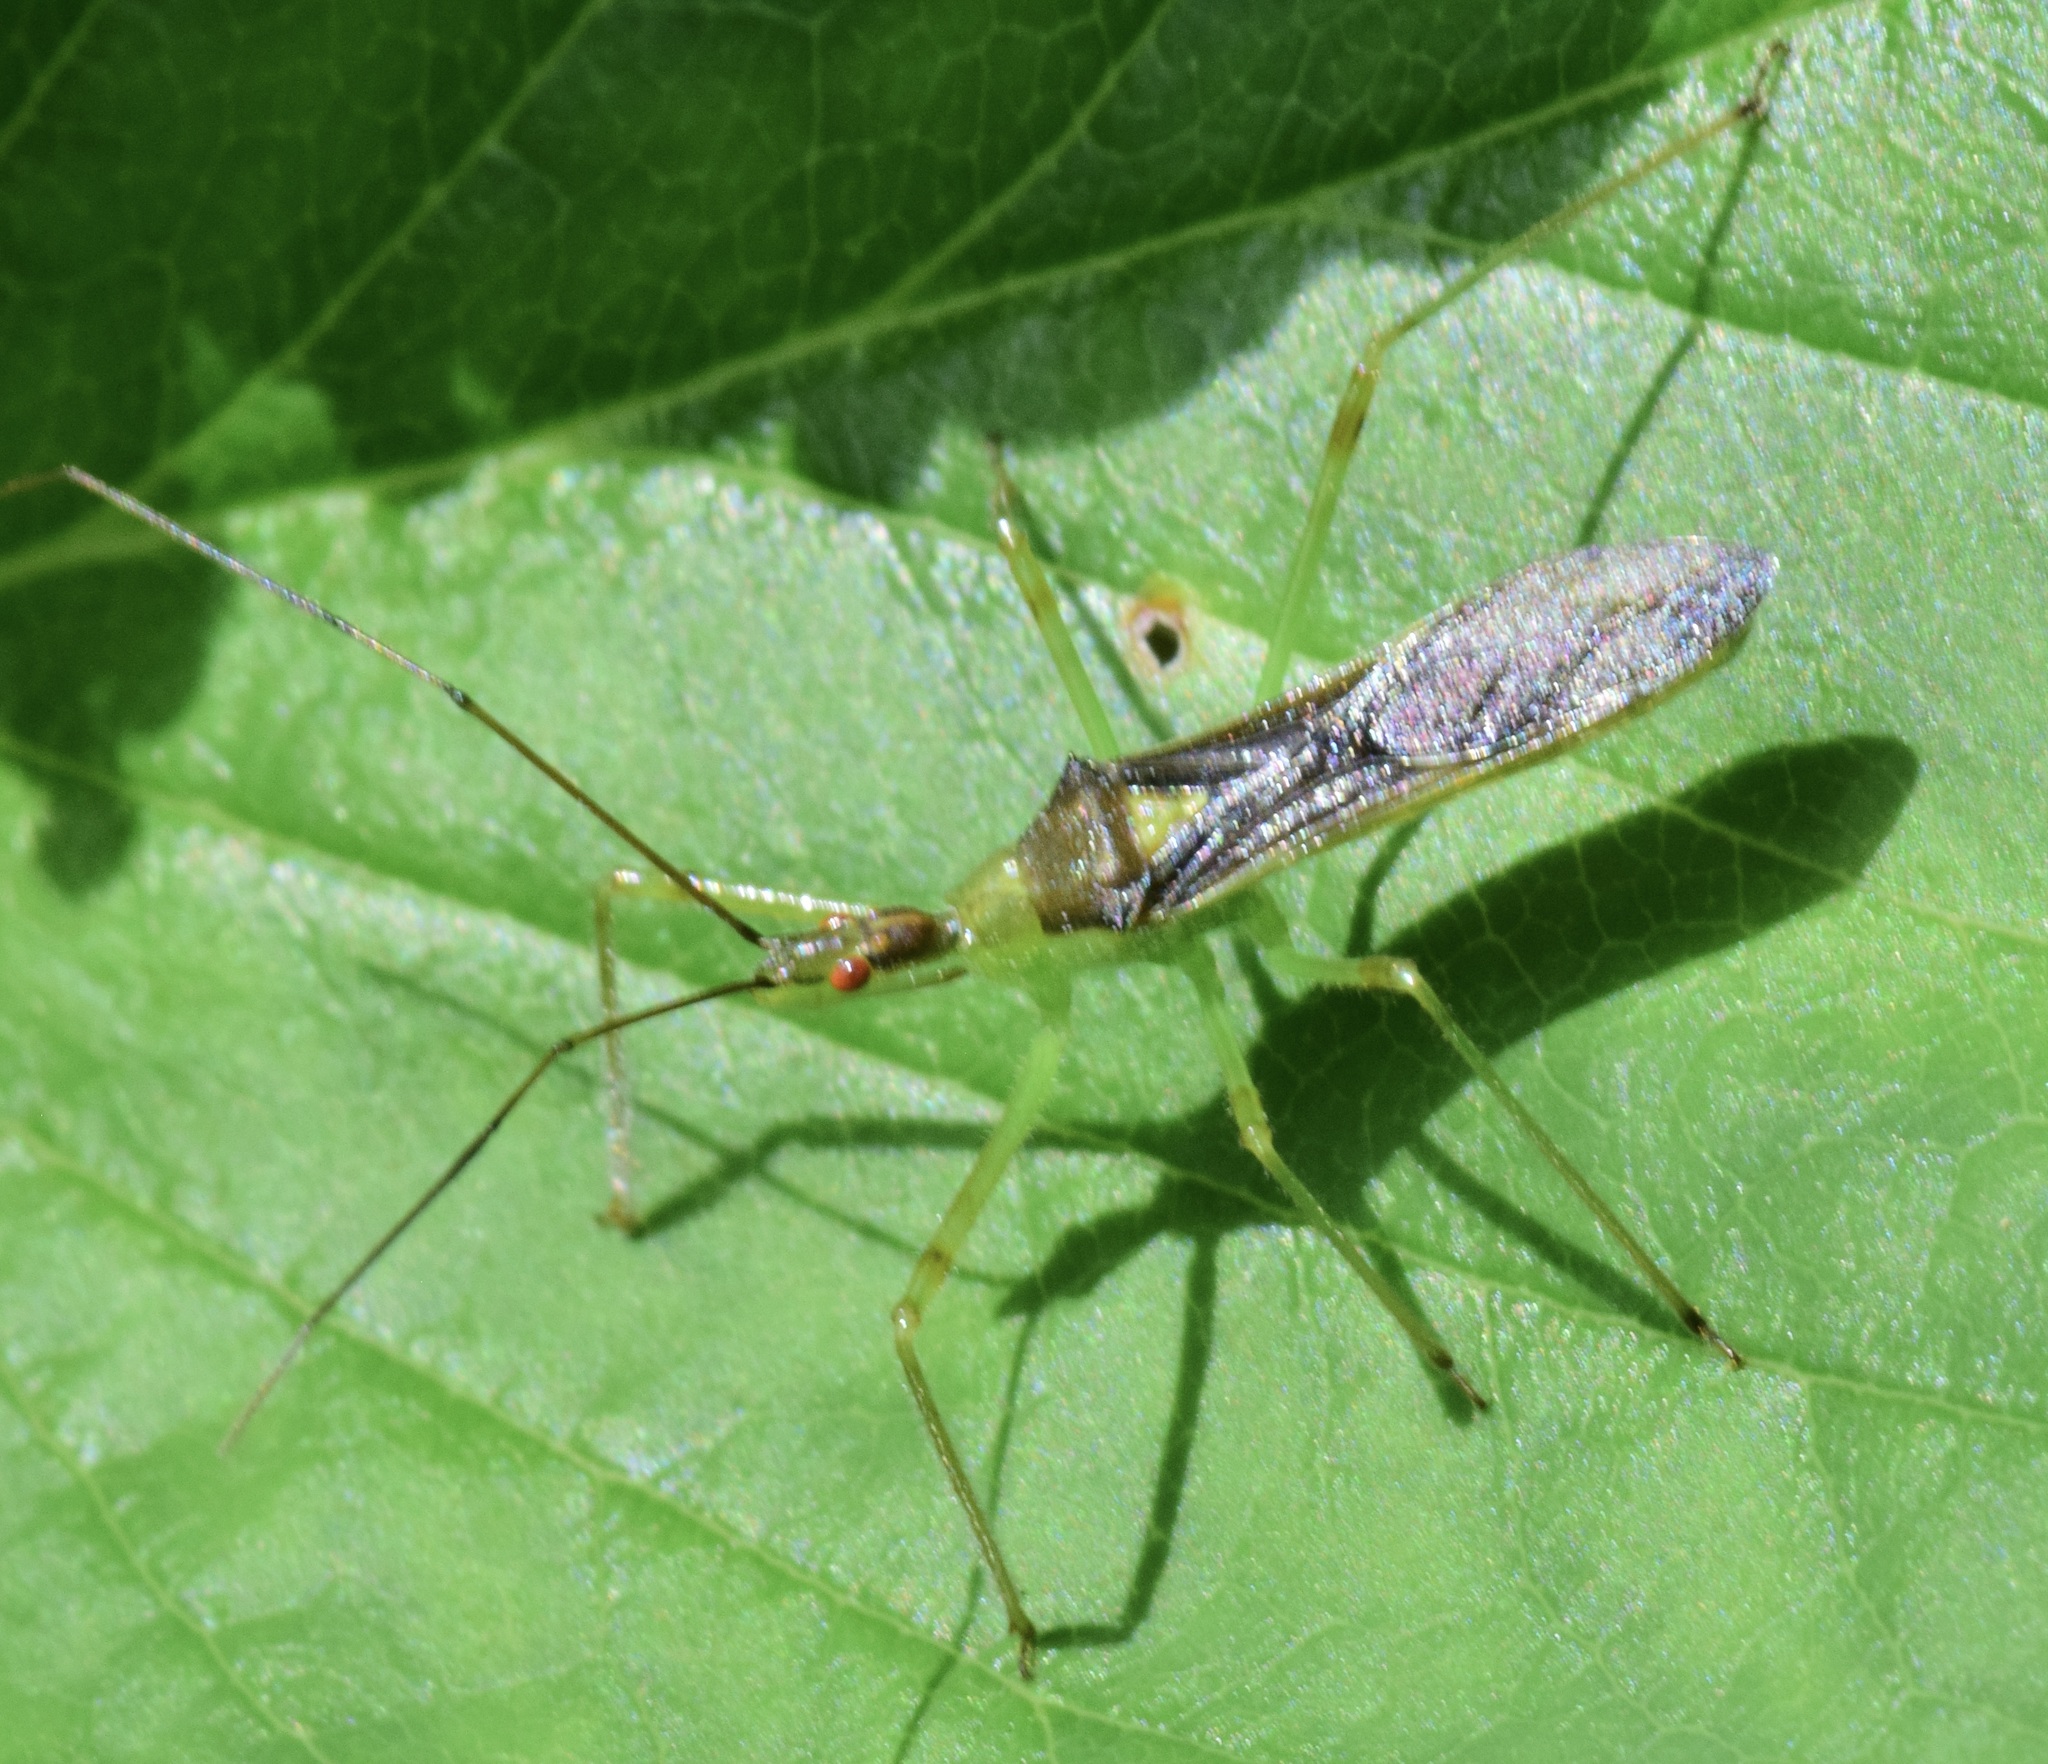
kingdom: Animalia
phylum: Arthropoda
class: Insecta
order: Hemiptera
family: Reduviidae
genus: Zelus
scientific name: Zelus luridus
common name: Pale green assassin bug
